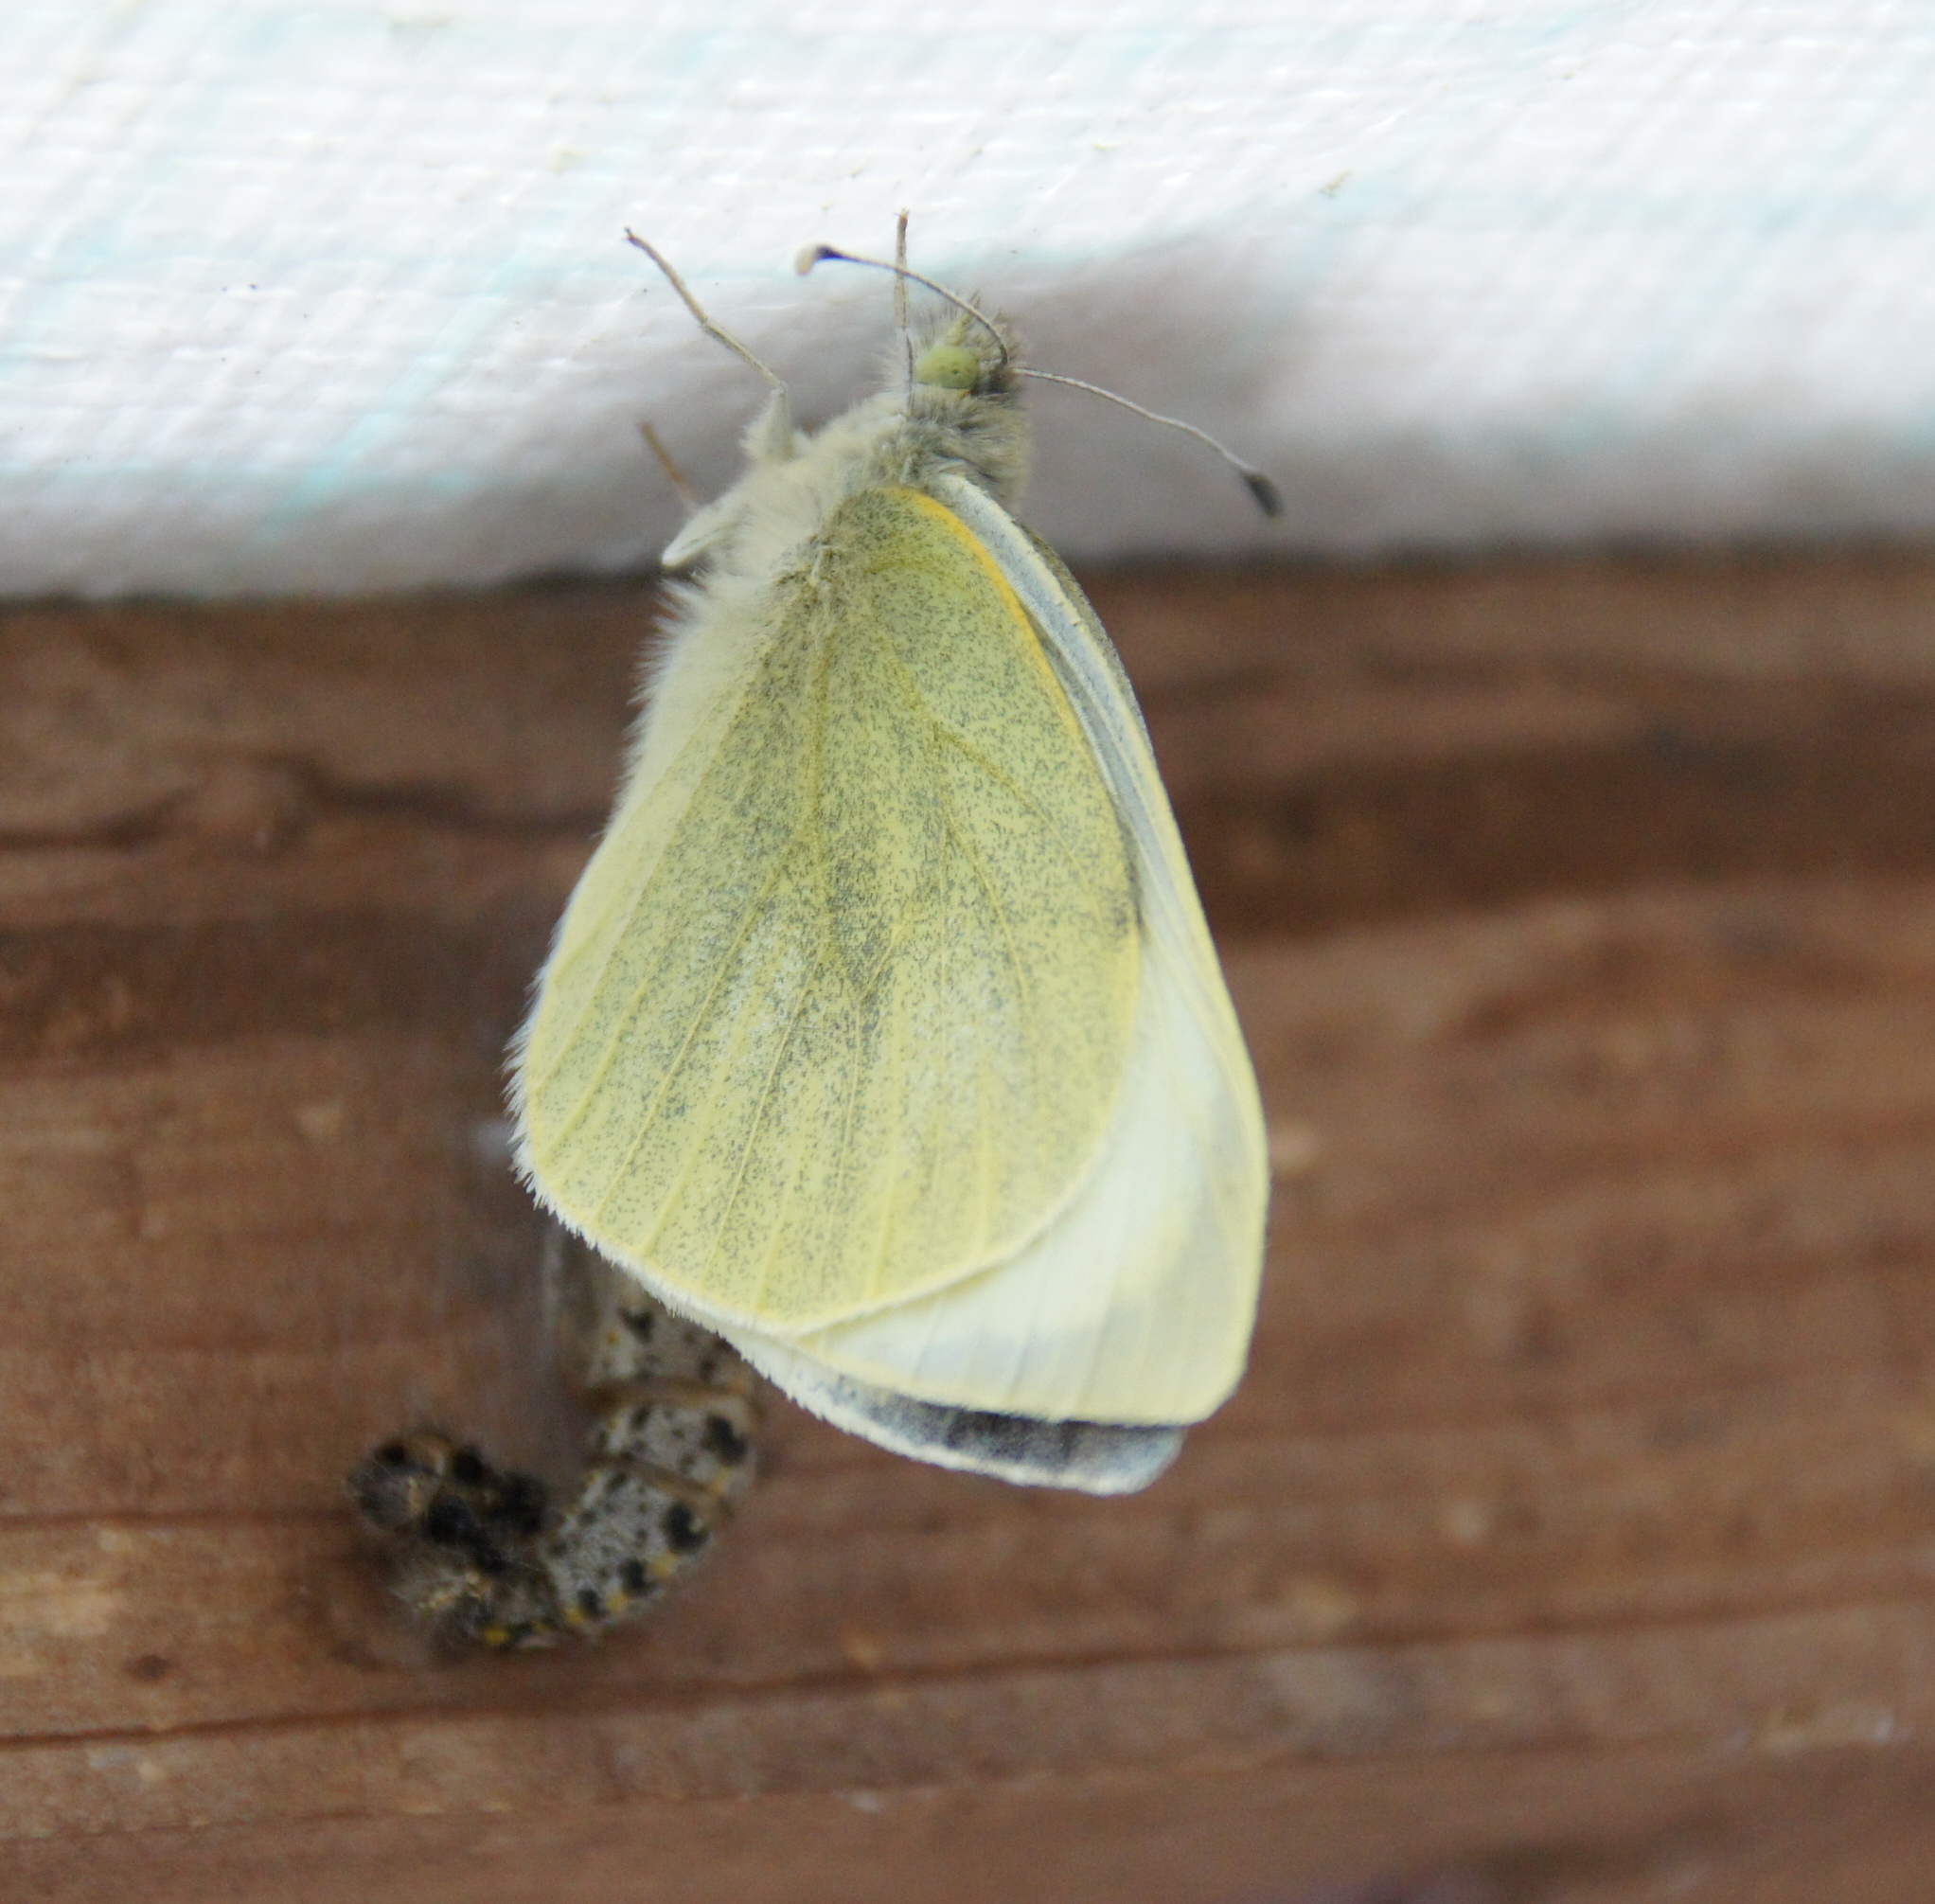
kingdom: Animalia
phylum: Arthropoda
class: Insecta
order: Lepidoptera
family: Pieridae
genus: Pieris
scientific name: Pieris brassicae
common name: Large white
